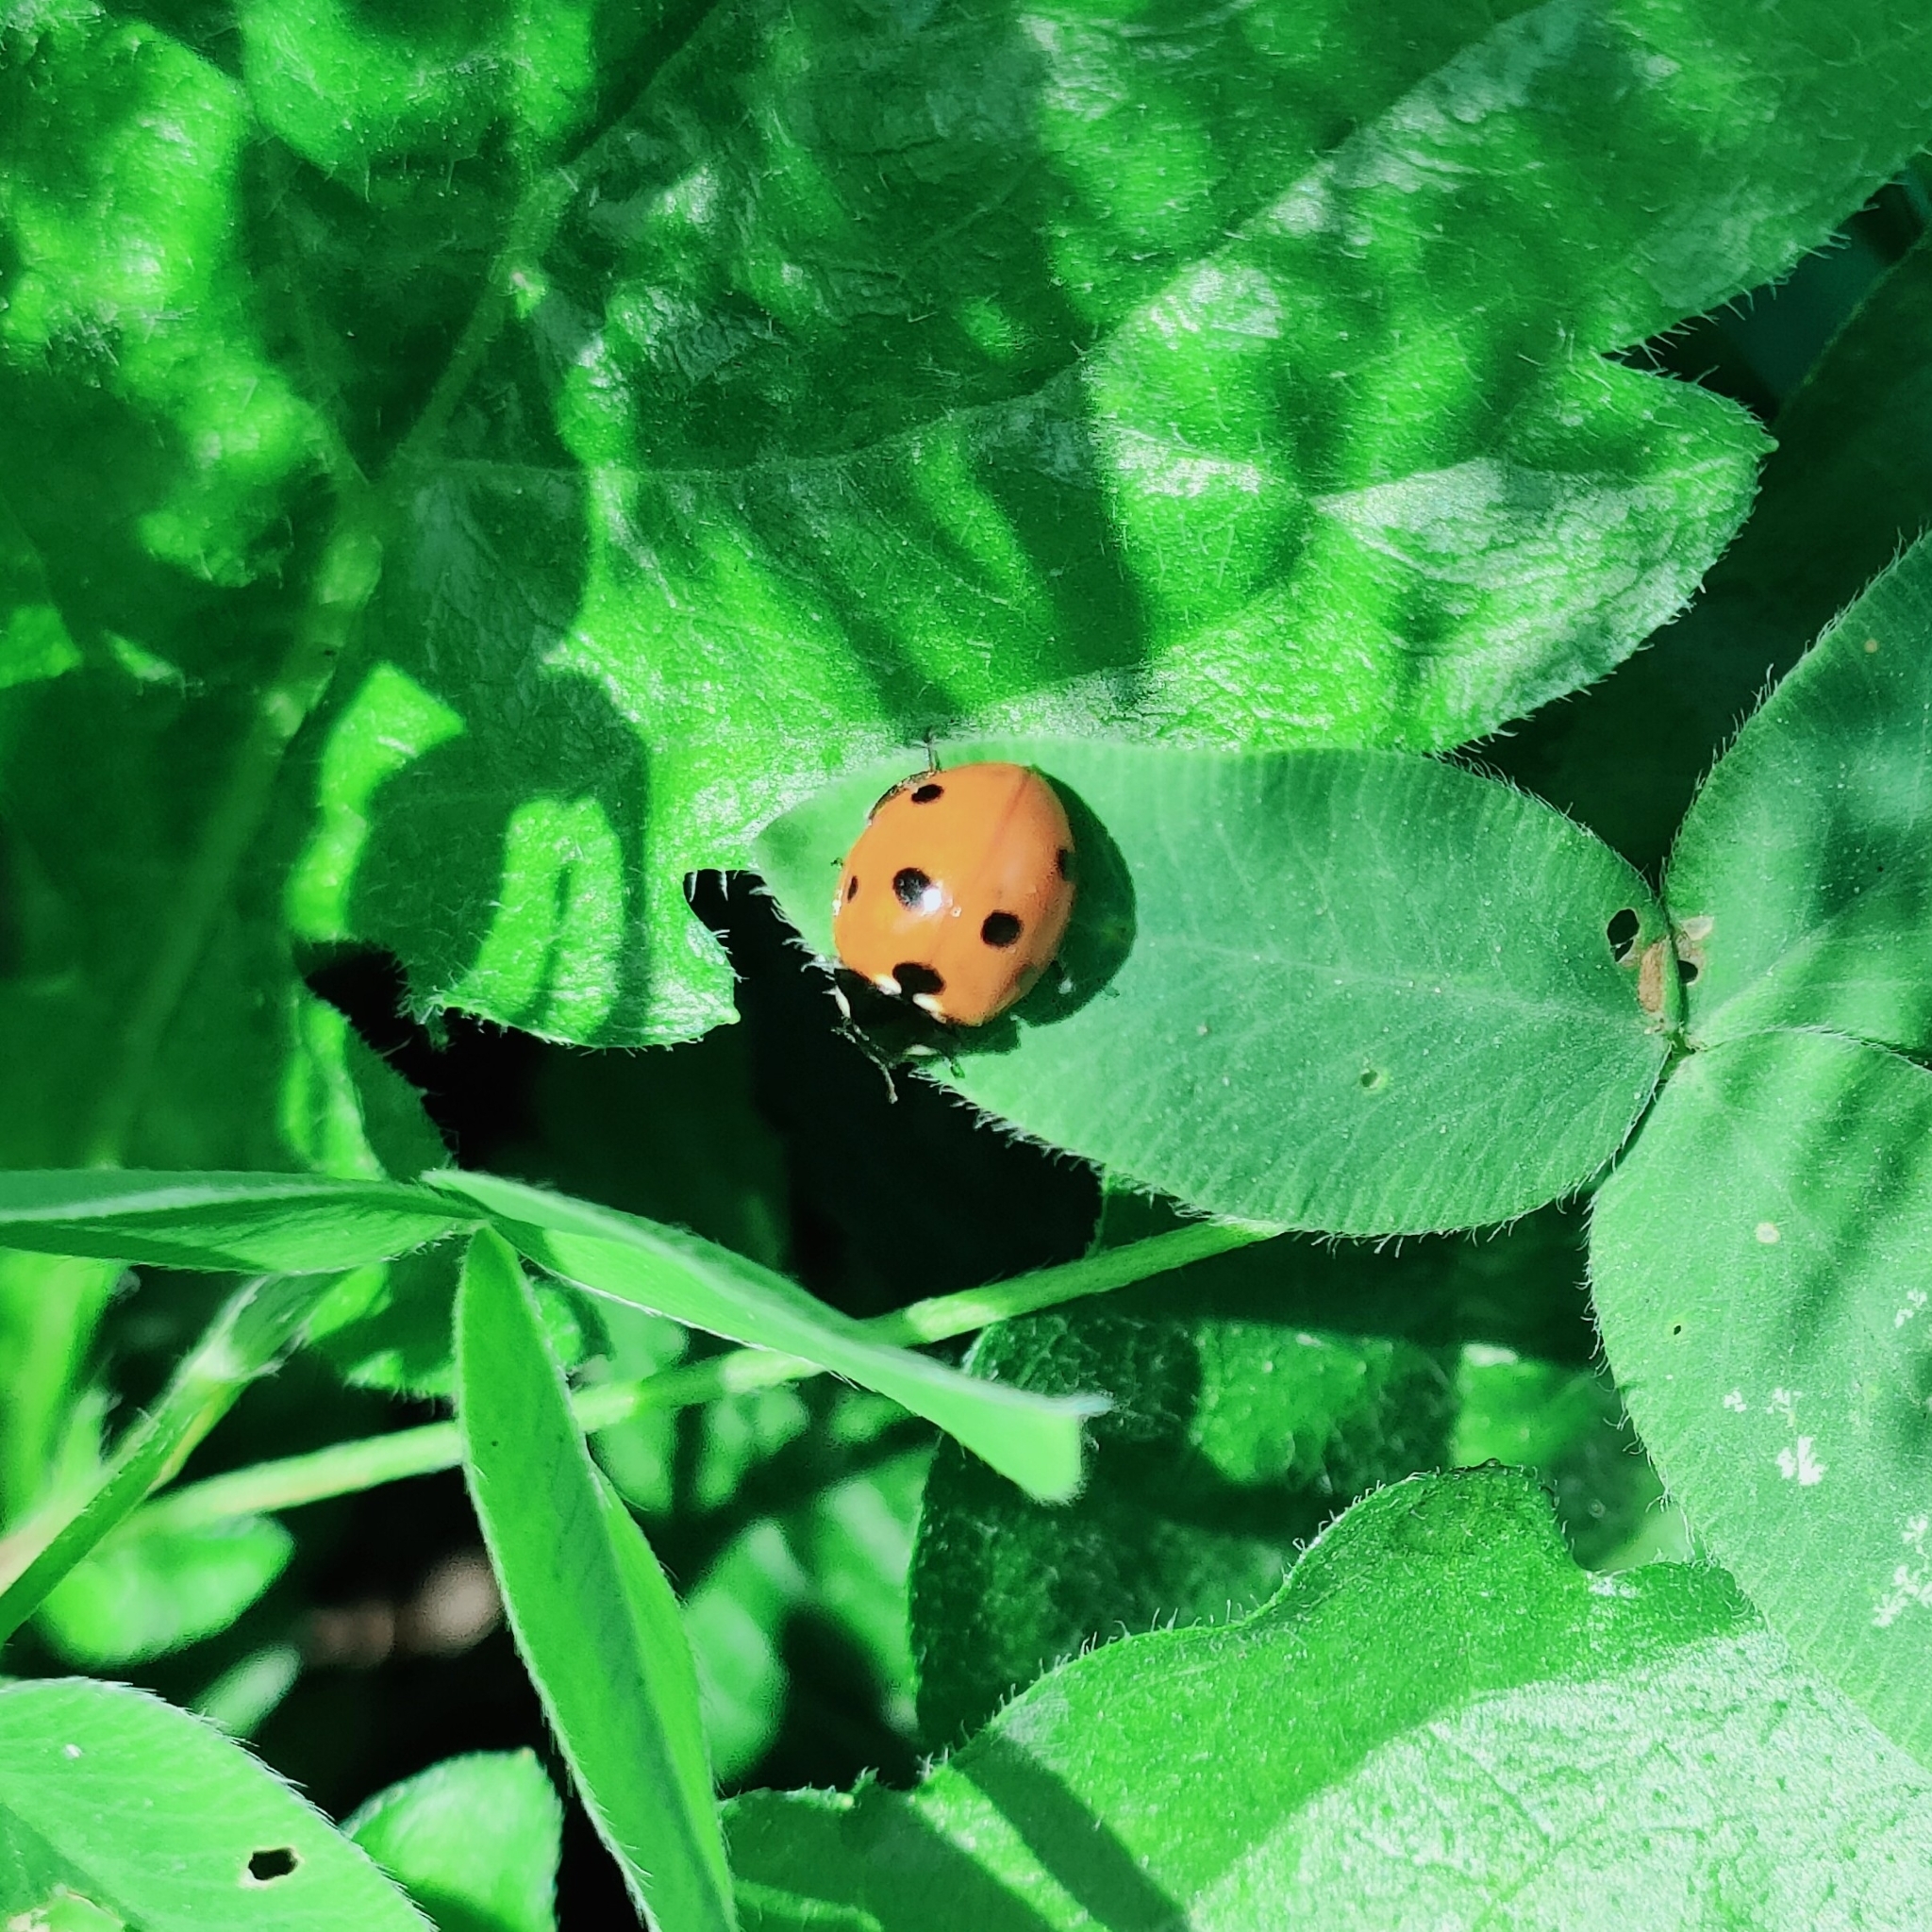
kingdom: Animalia
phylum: Arthropoda
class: Insecta
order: Coleoptera
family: Coccinellidae
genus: Coccinella
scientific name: Coccinella septempunctata
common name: Sevenspotted lady beetle
